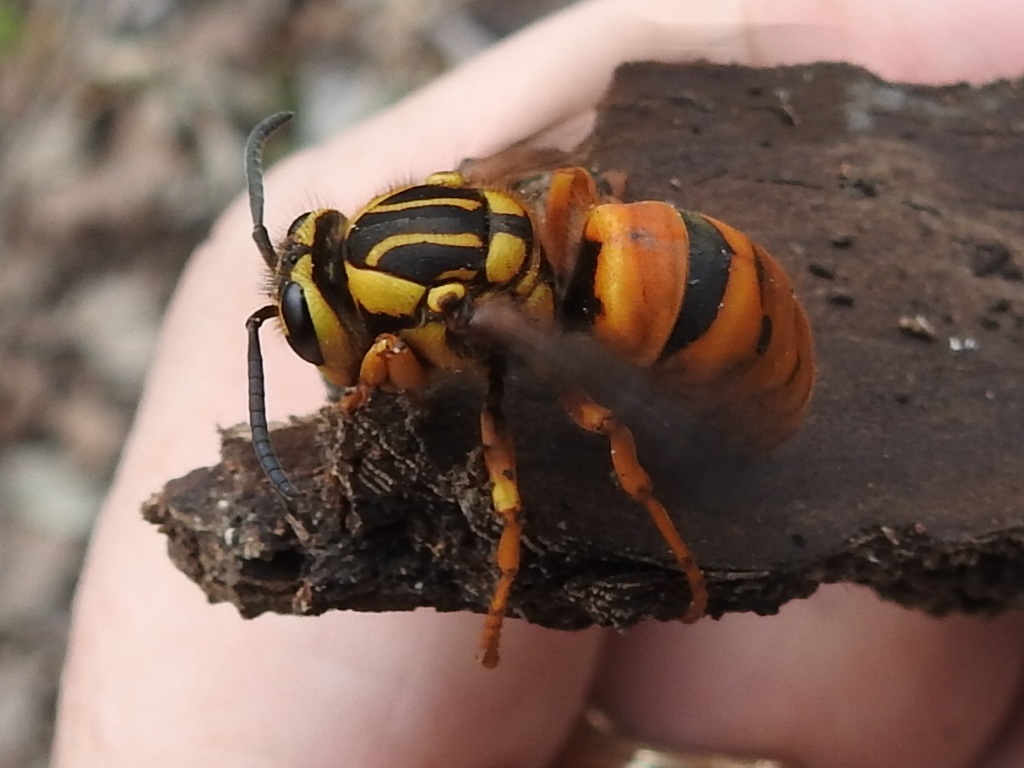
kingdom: Animalia
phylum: Arthropoda
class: Insecta
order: Hymenoptera
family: Vespidae
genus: Vespula
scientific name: Vespula squamosa
